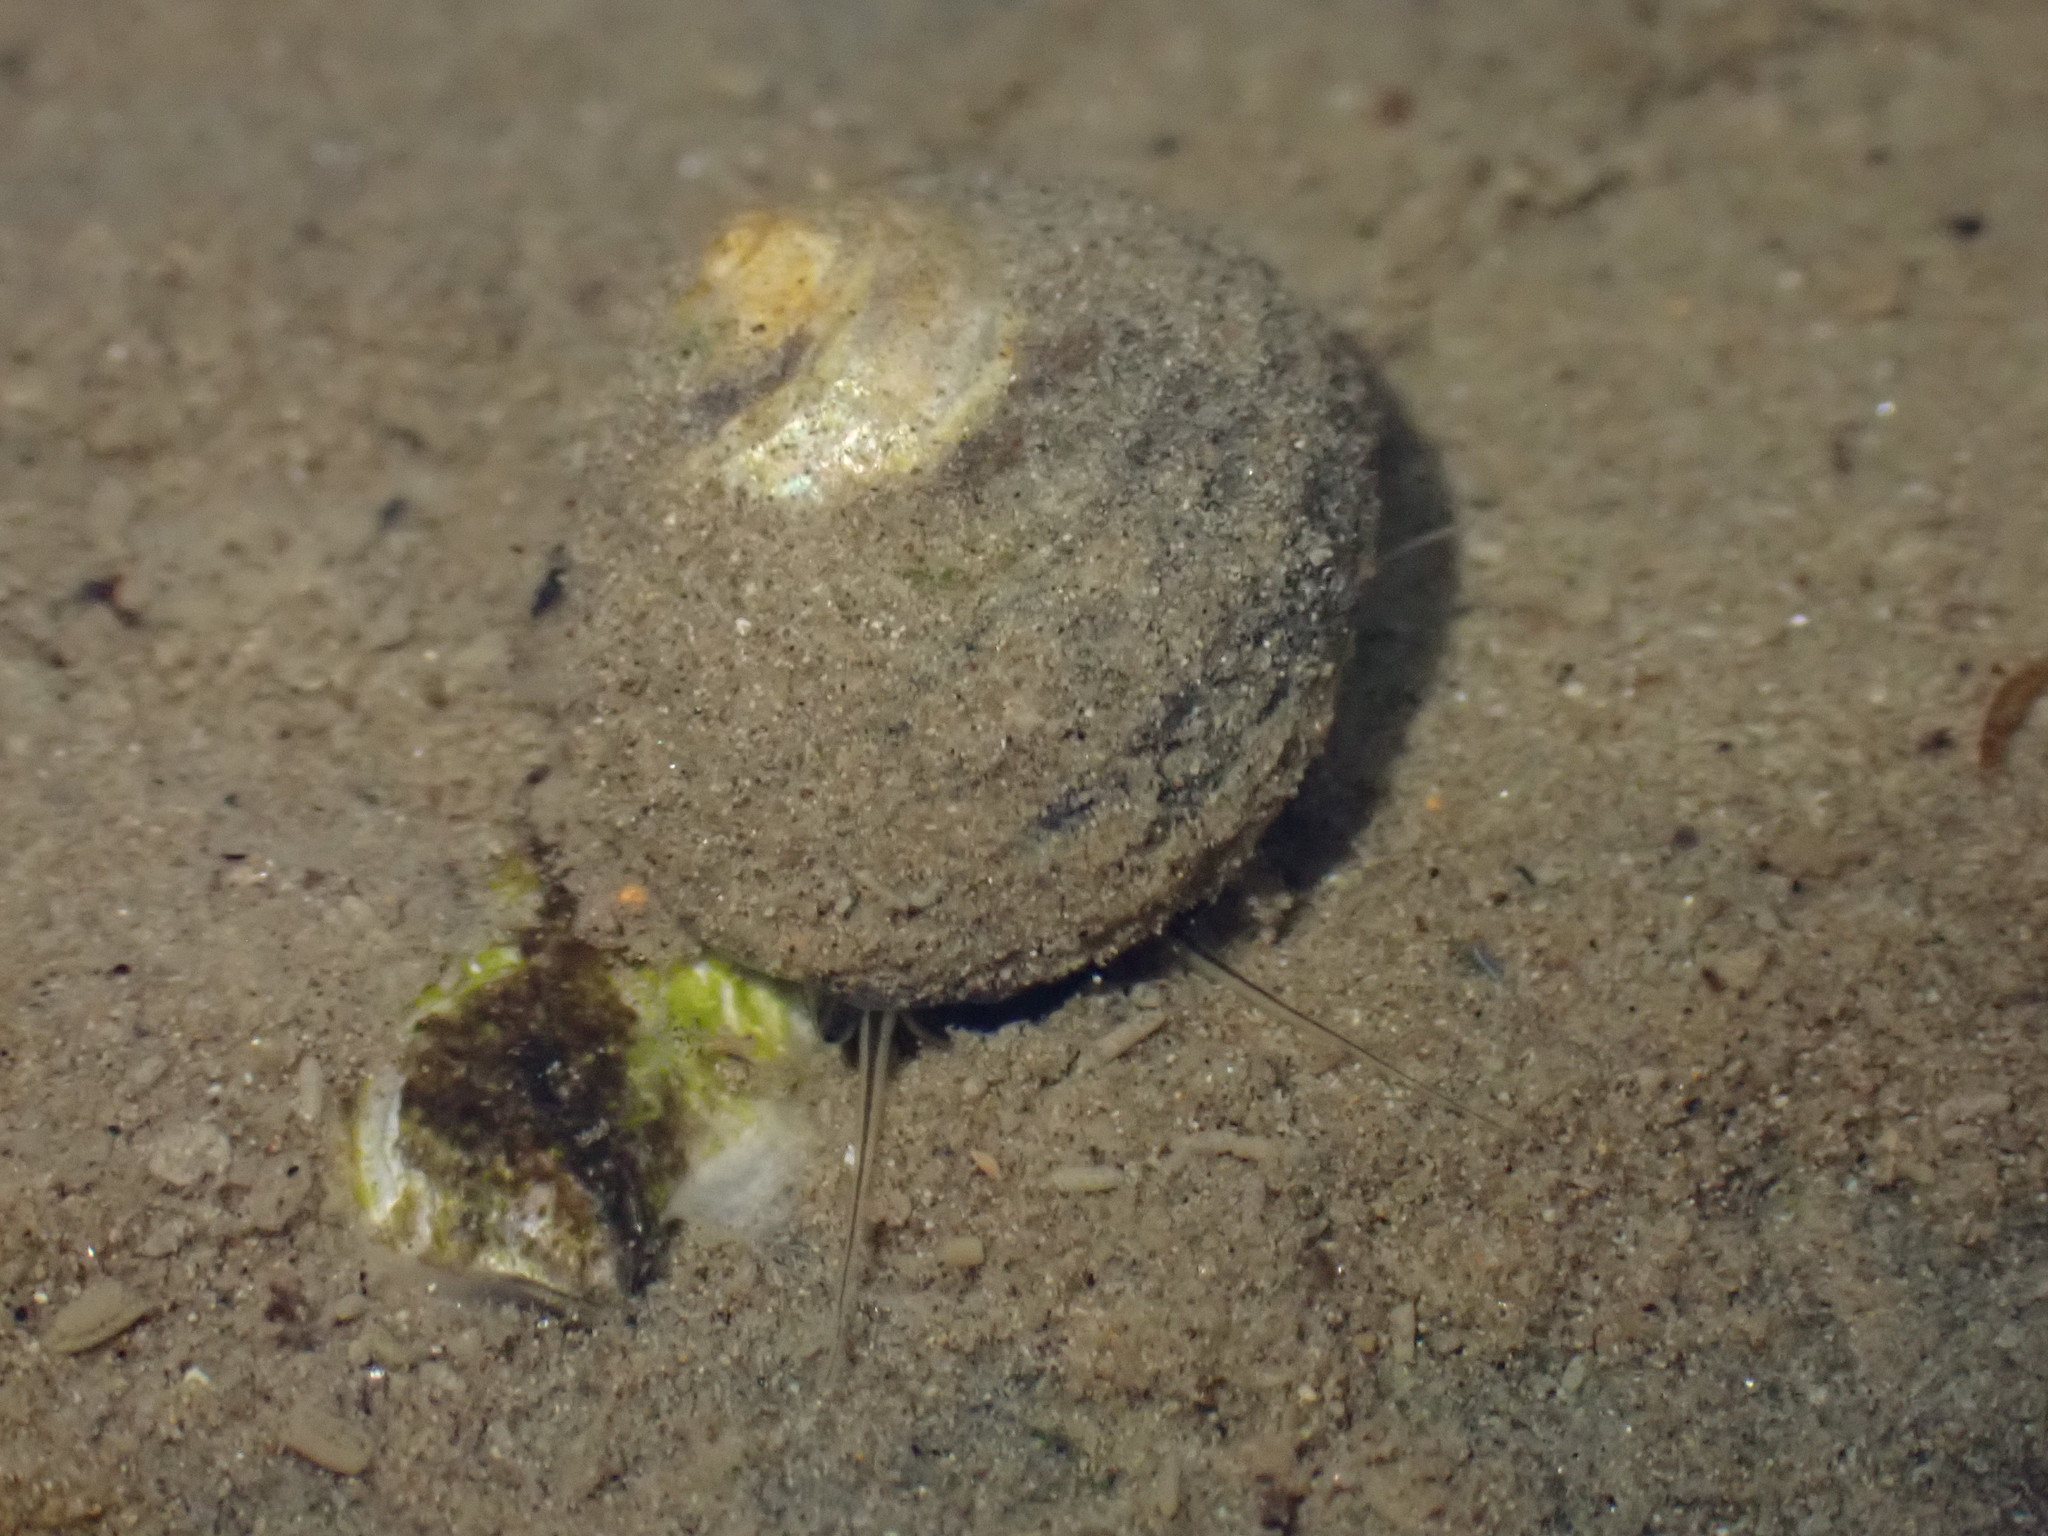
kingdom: Animalia
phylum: Mollusca
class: Gastropoda
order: Trochida
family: Trochidae
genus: Diloma
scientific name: Diloma subrostratum
